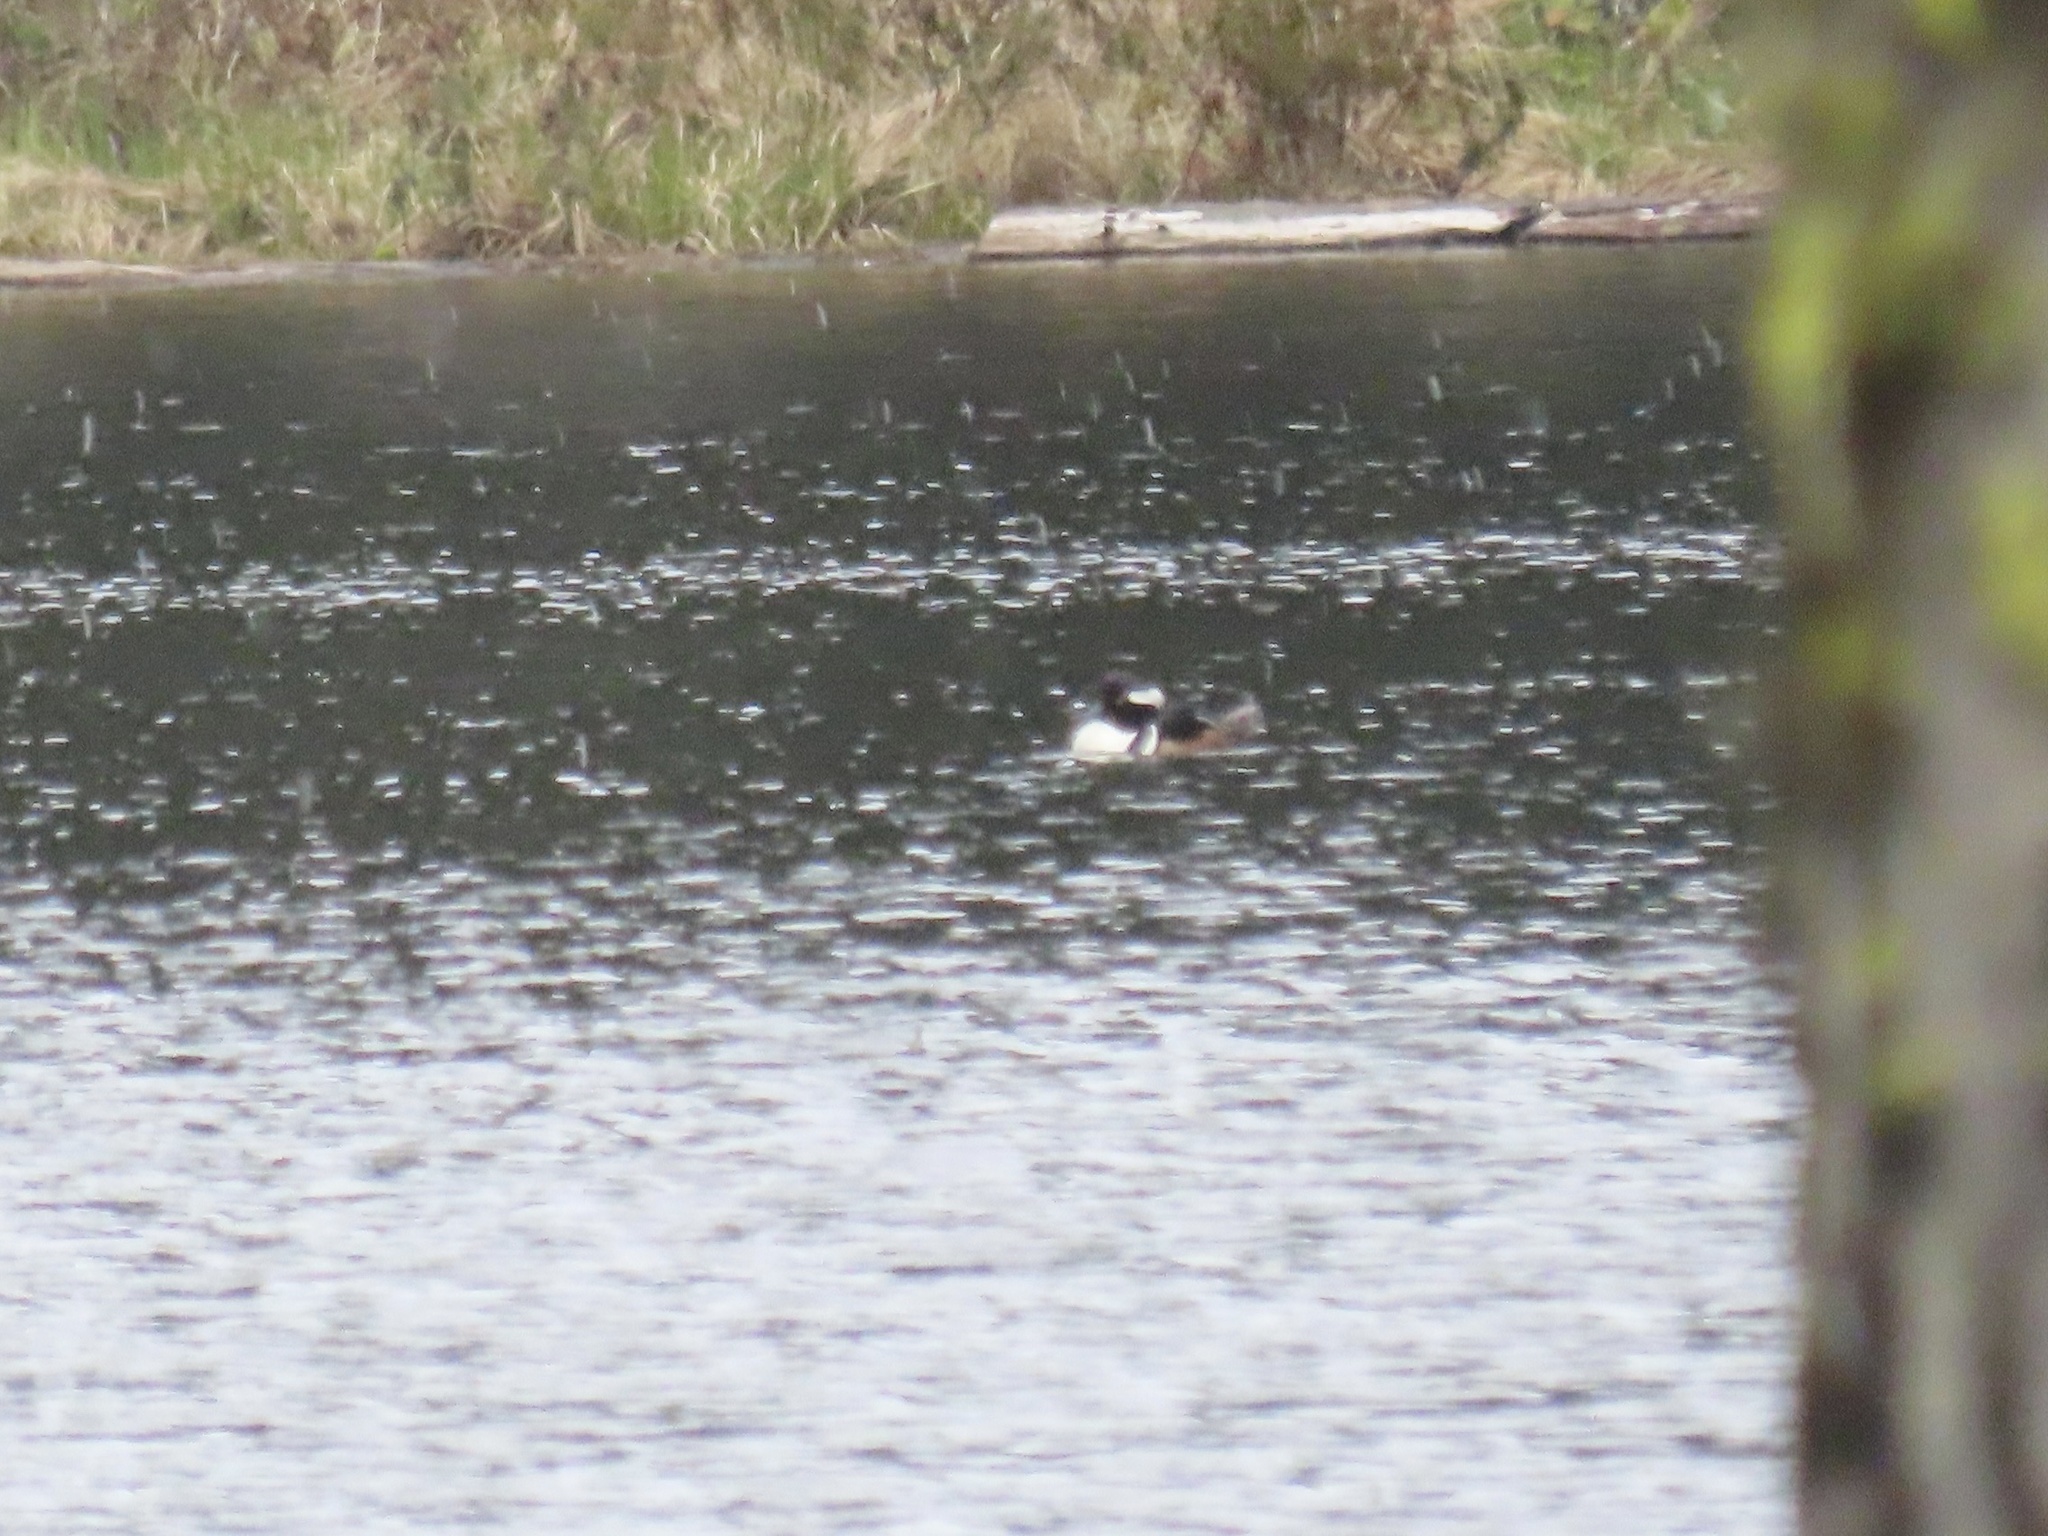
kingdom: Animalia
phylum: Chordata
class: Aves
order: Anseriformes
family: Anatidae
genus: Lophodytes
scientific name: Lophodytes cucullatus
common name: Hooded merganser
